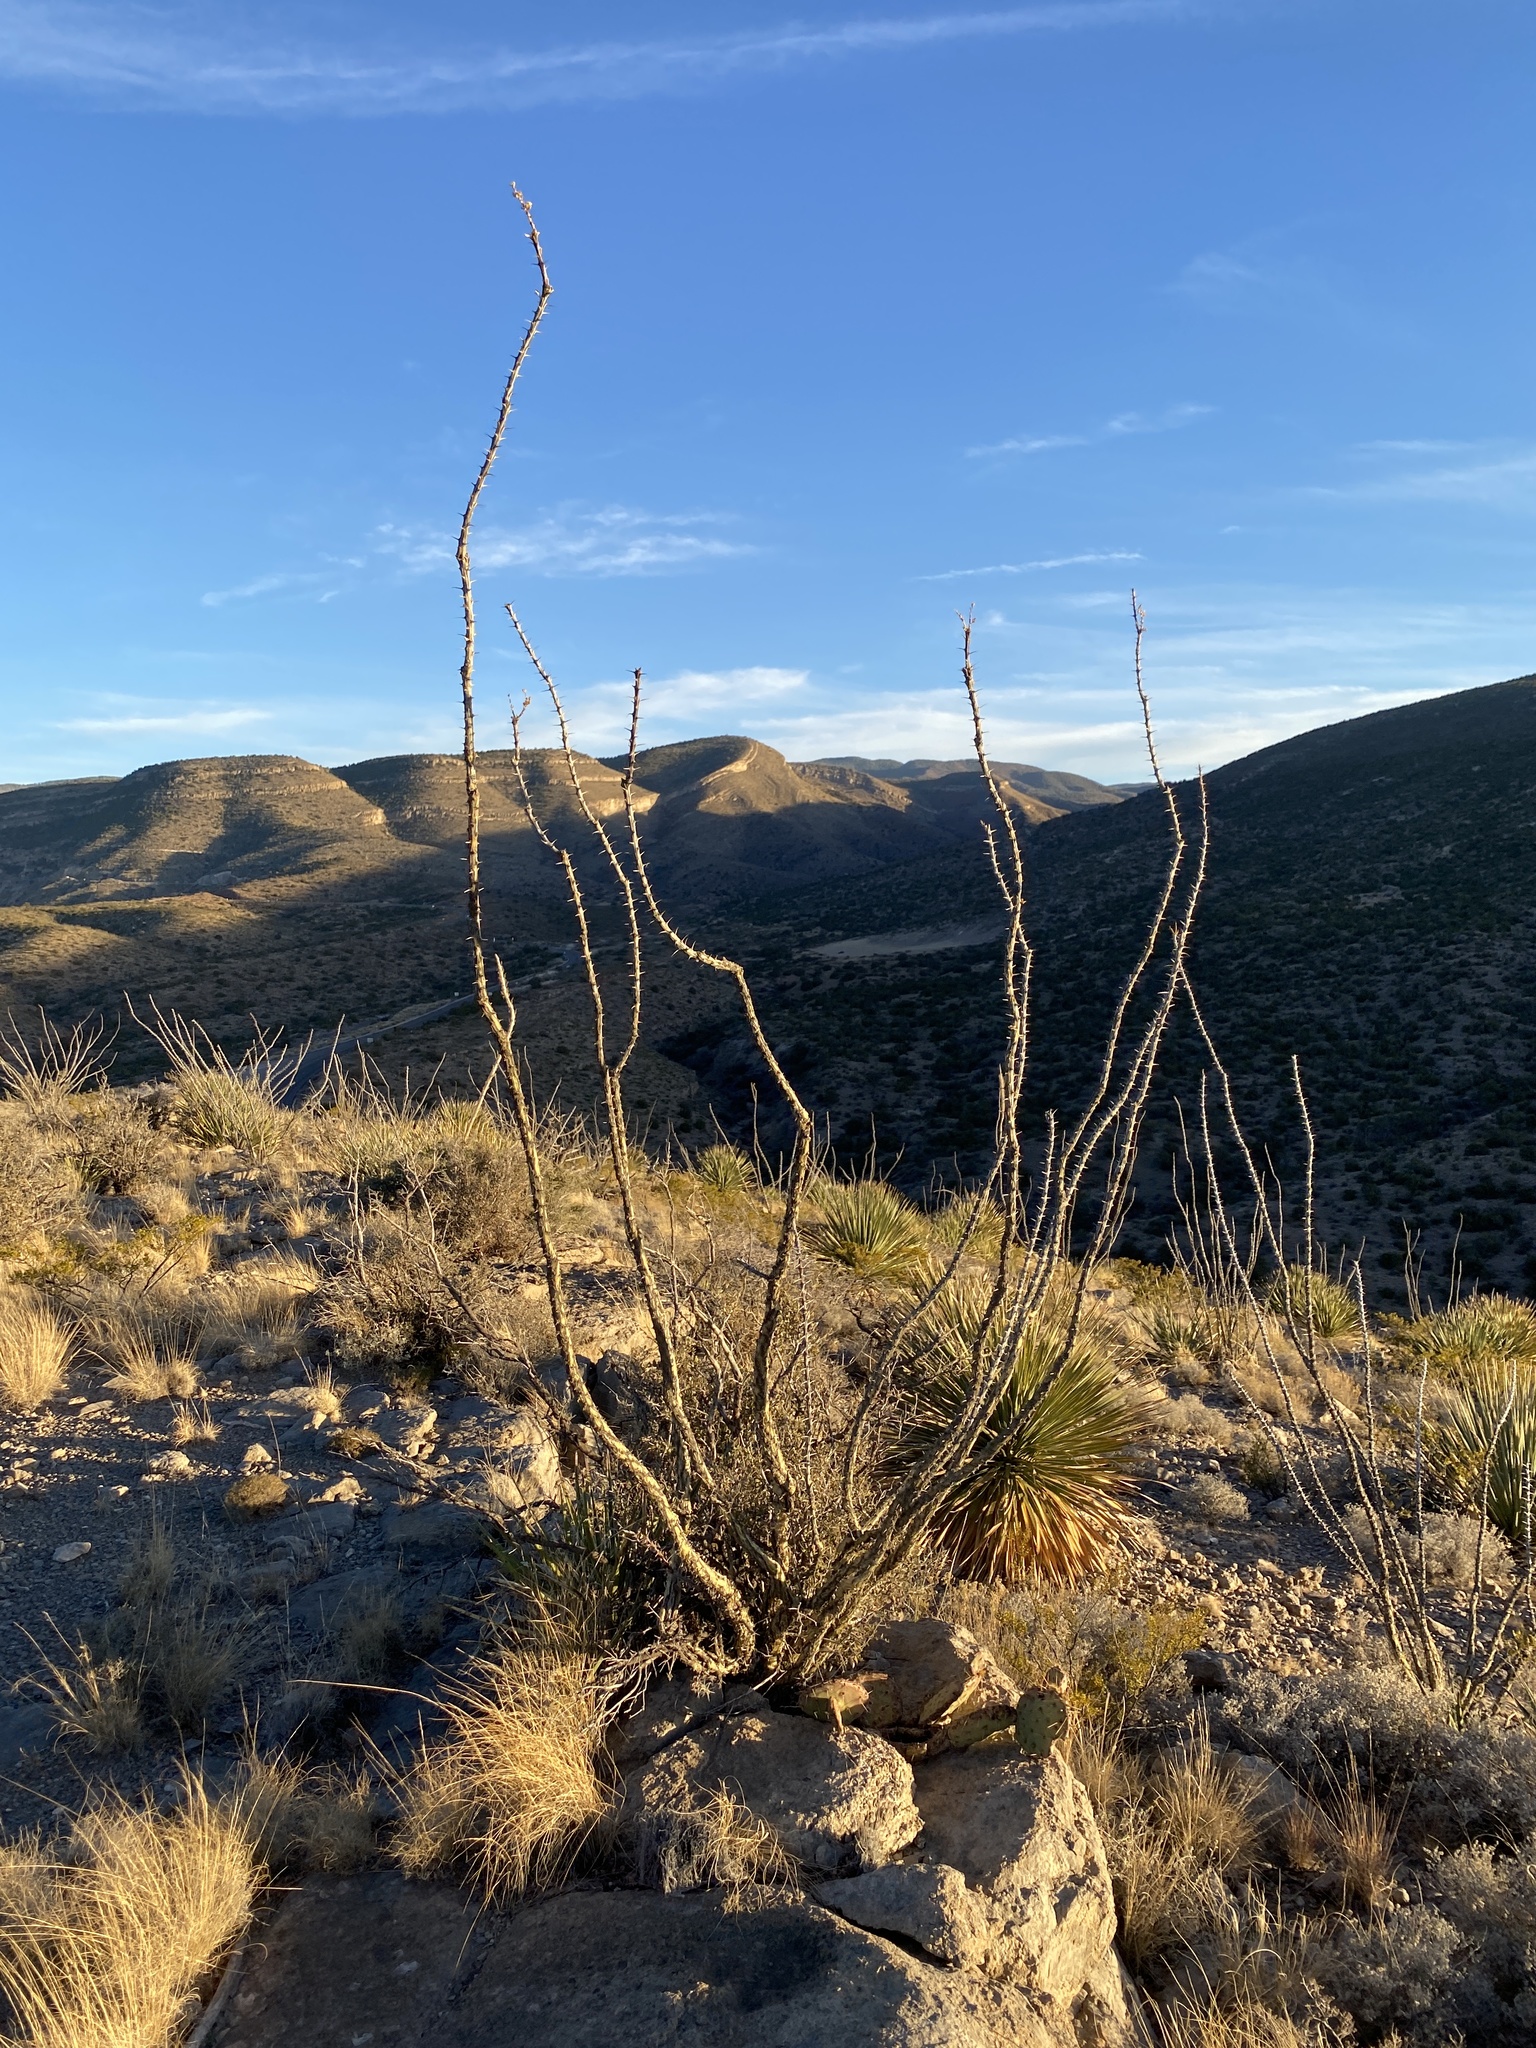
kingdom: Plantae
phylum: Tracheophyta
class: Magnoliopsida
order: Ericales
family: Fouquieriaceae
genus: Fouquieria
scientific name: Fouquieria splendens
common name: Vine-cactus
